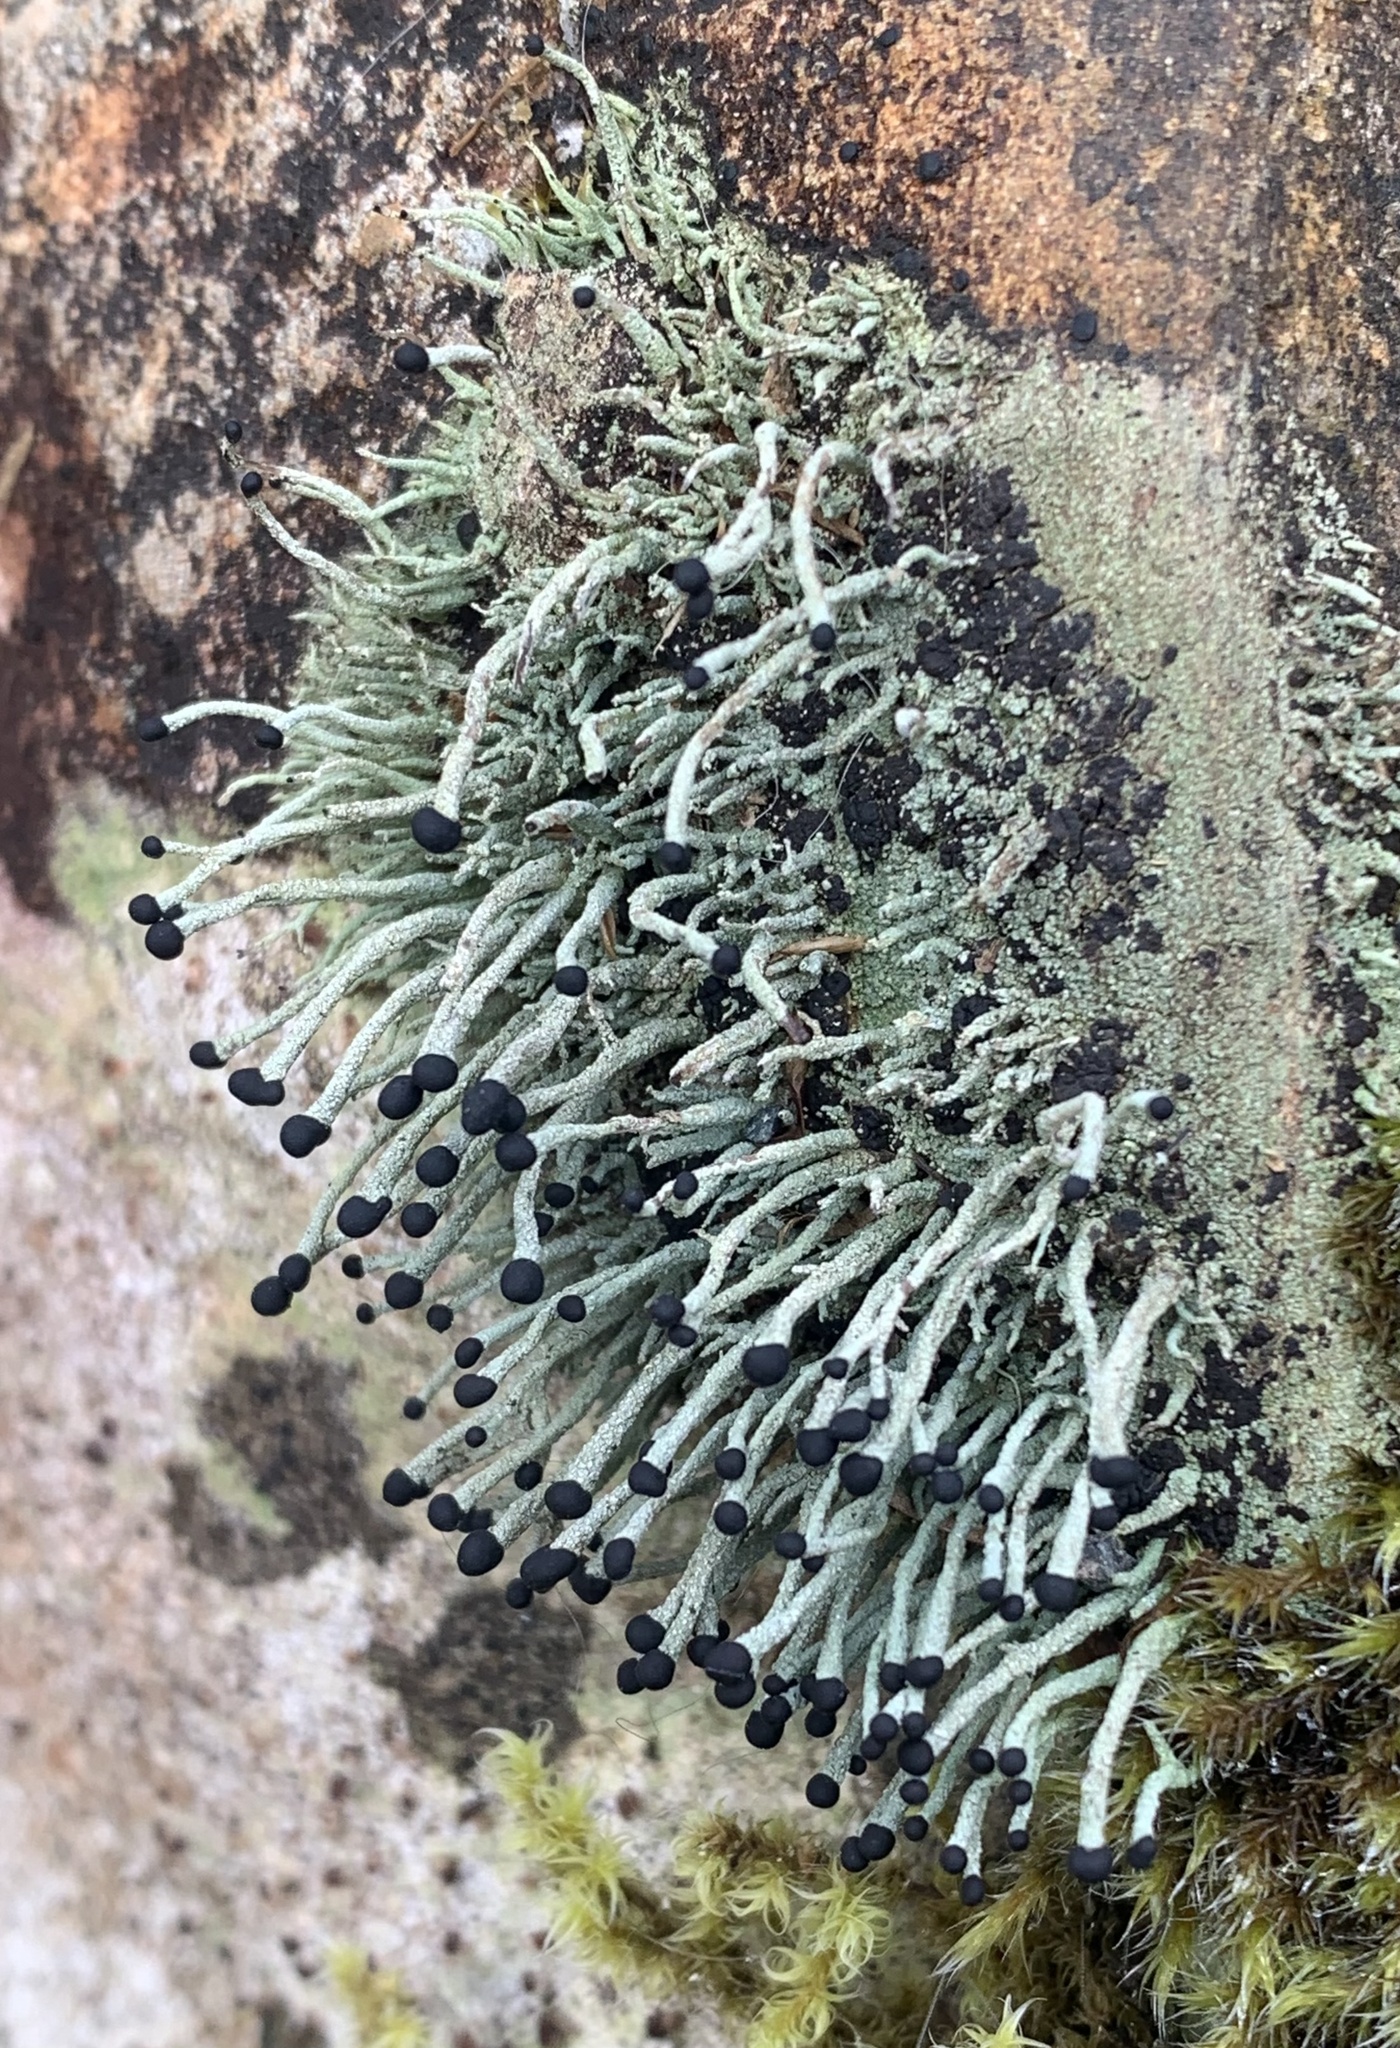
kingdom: Fungi
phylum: Ascomycota
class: Lecanoromycetes
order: Lecanorales
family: Cladoniaceae
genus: Pilophorus
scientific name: Pilophorus acicularis
